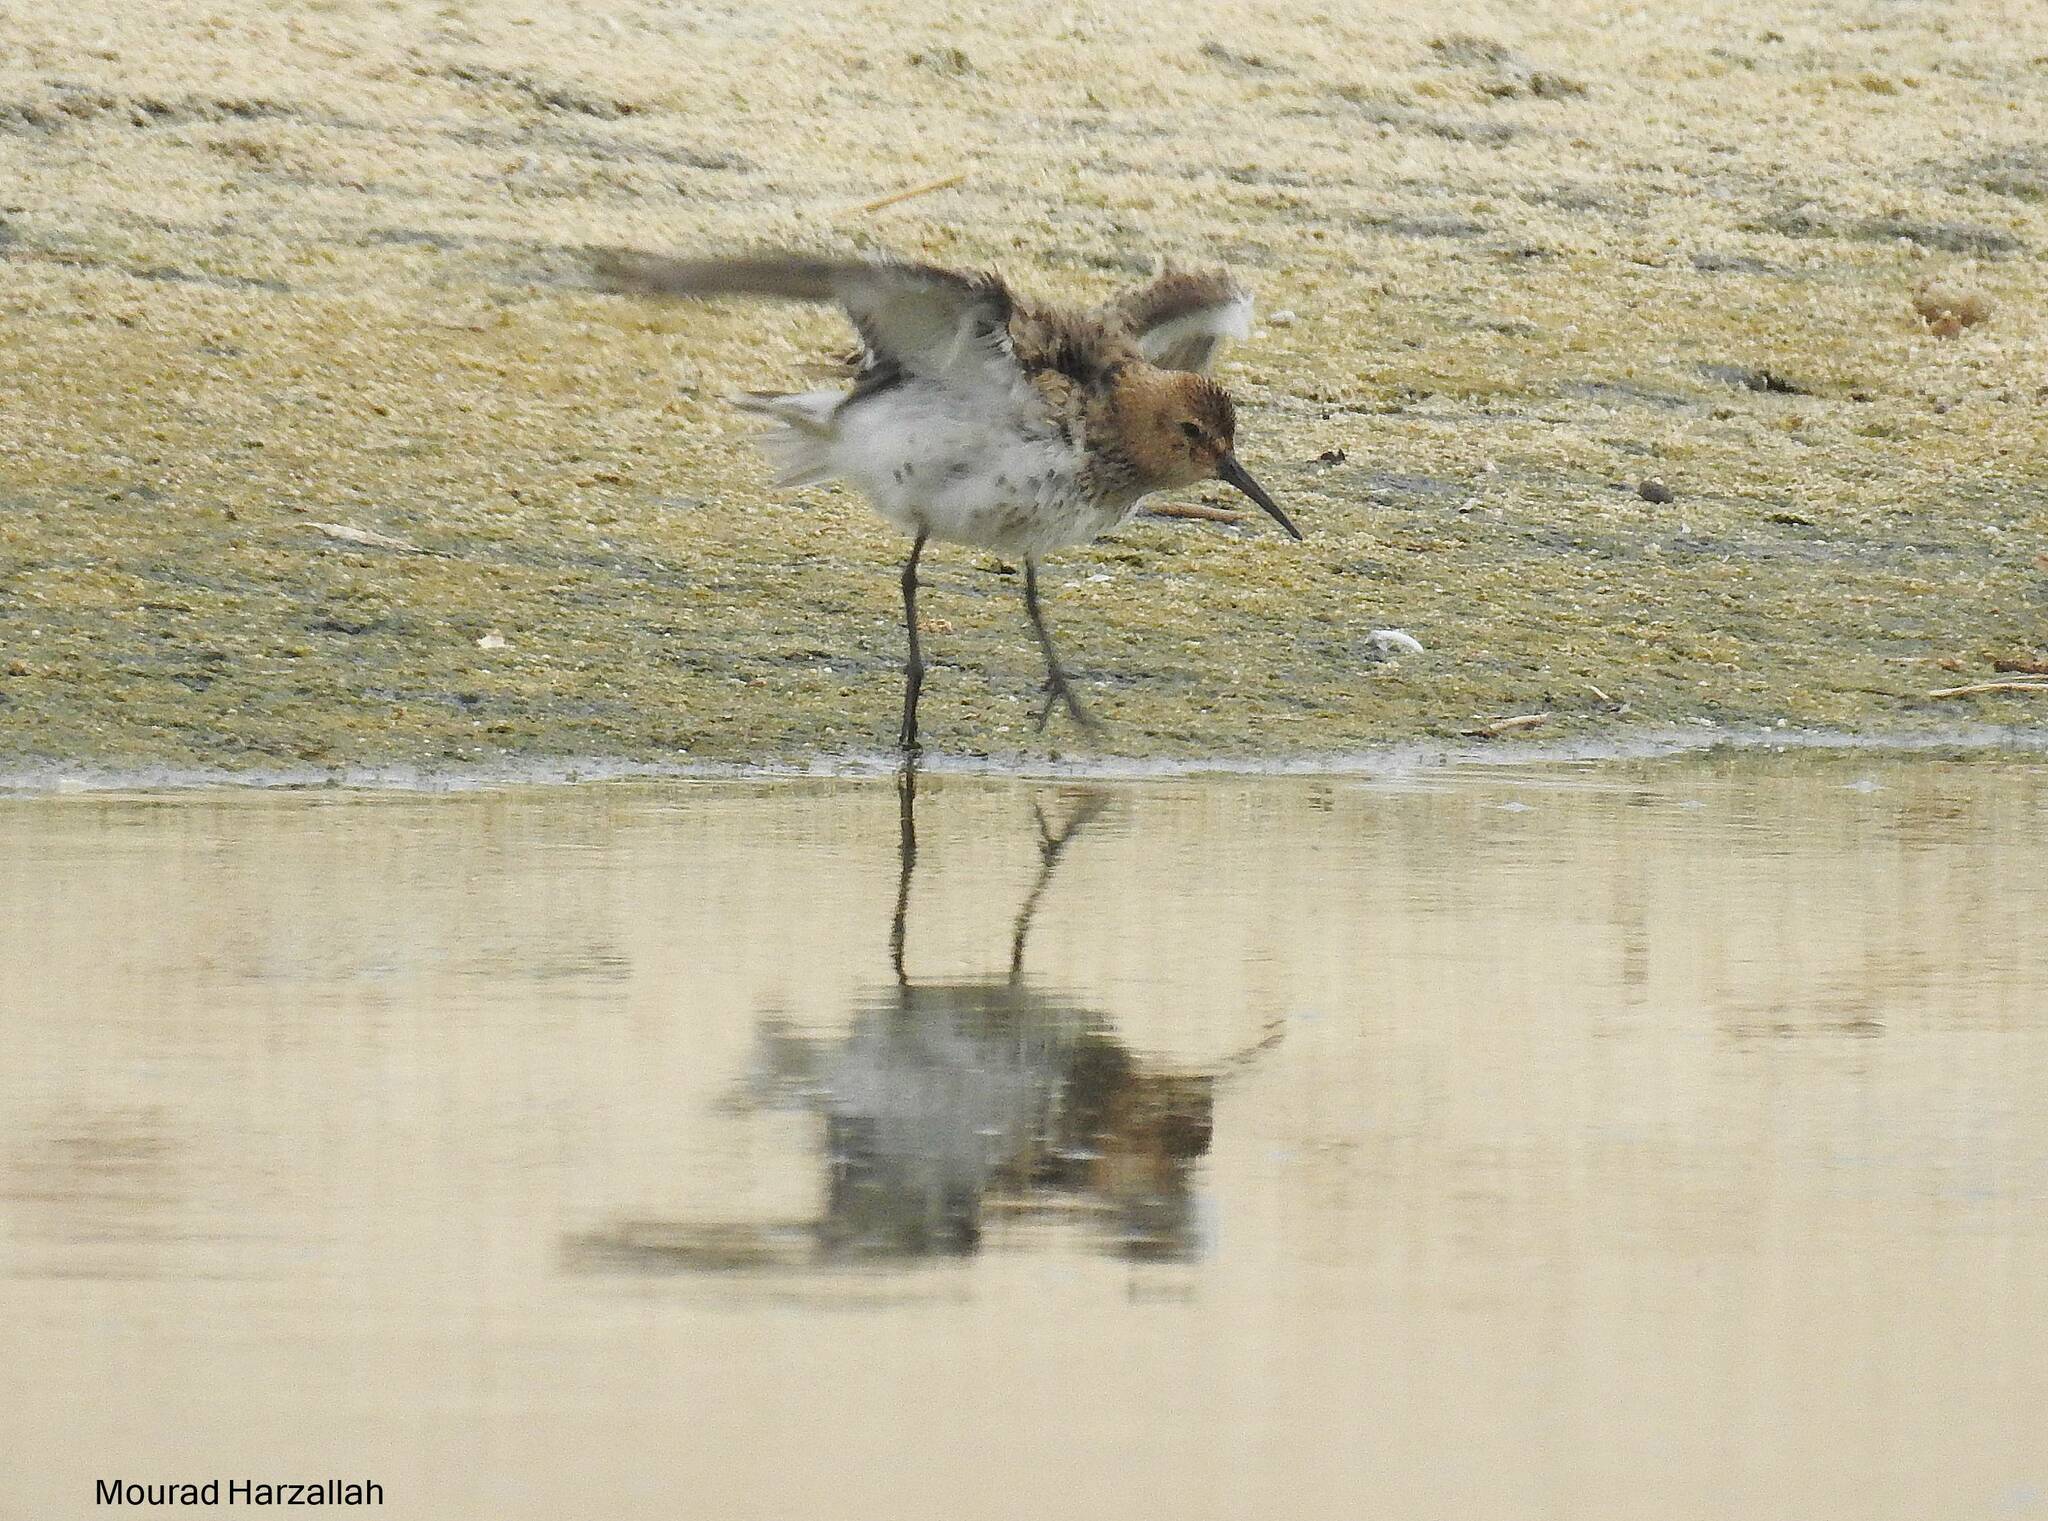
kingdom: Animalia
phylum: Chordata
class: Aves
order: Charadriiformes
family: Scolopacidae
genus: Calidris
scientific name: Calidris alpina
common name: Dunlin
